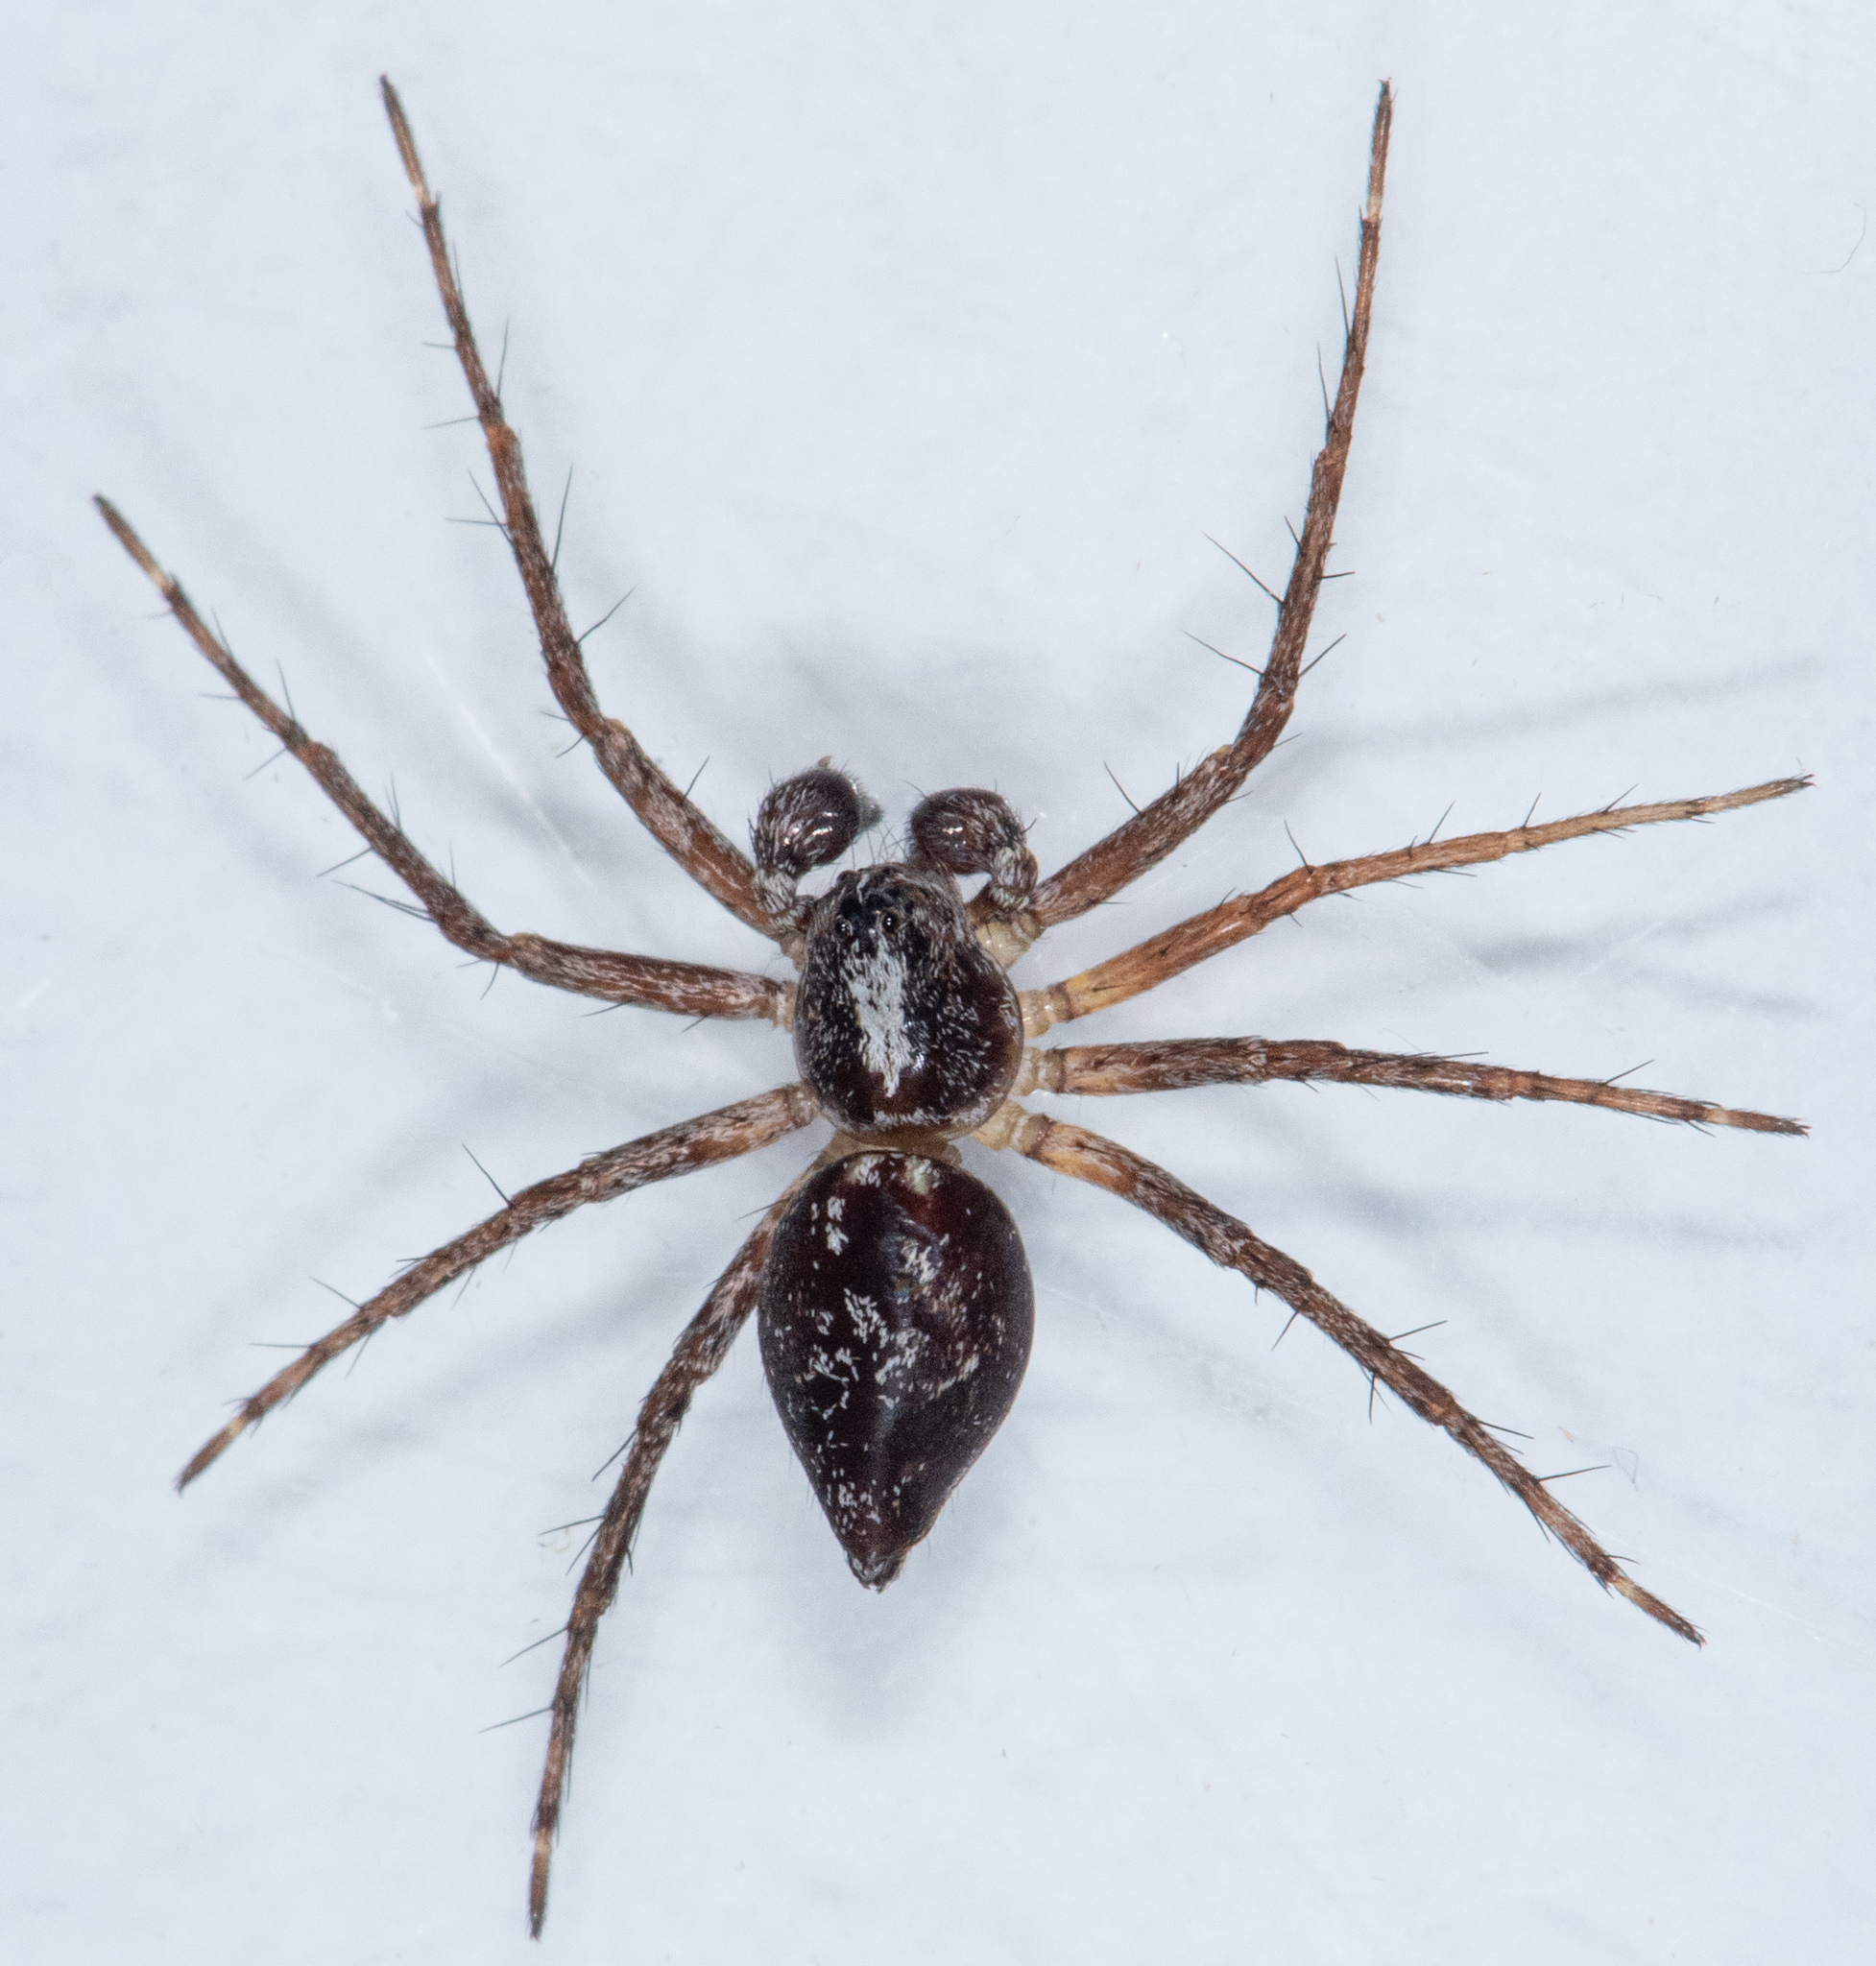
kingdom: Animalia
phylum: Arthropoda
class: Arachnida
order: Araneae
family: Oxyopidae
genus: Oxyopes
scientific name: Oxyopes scalaris
